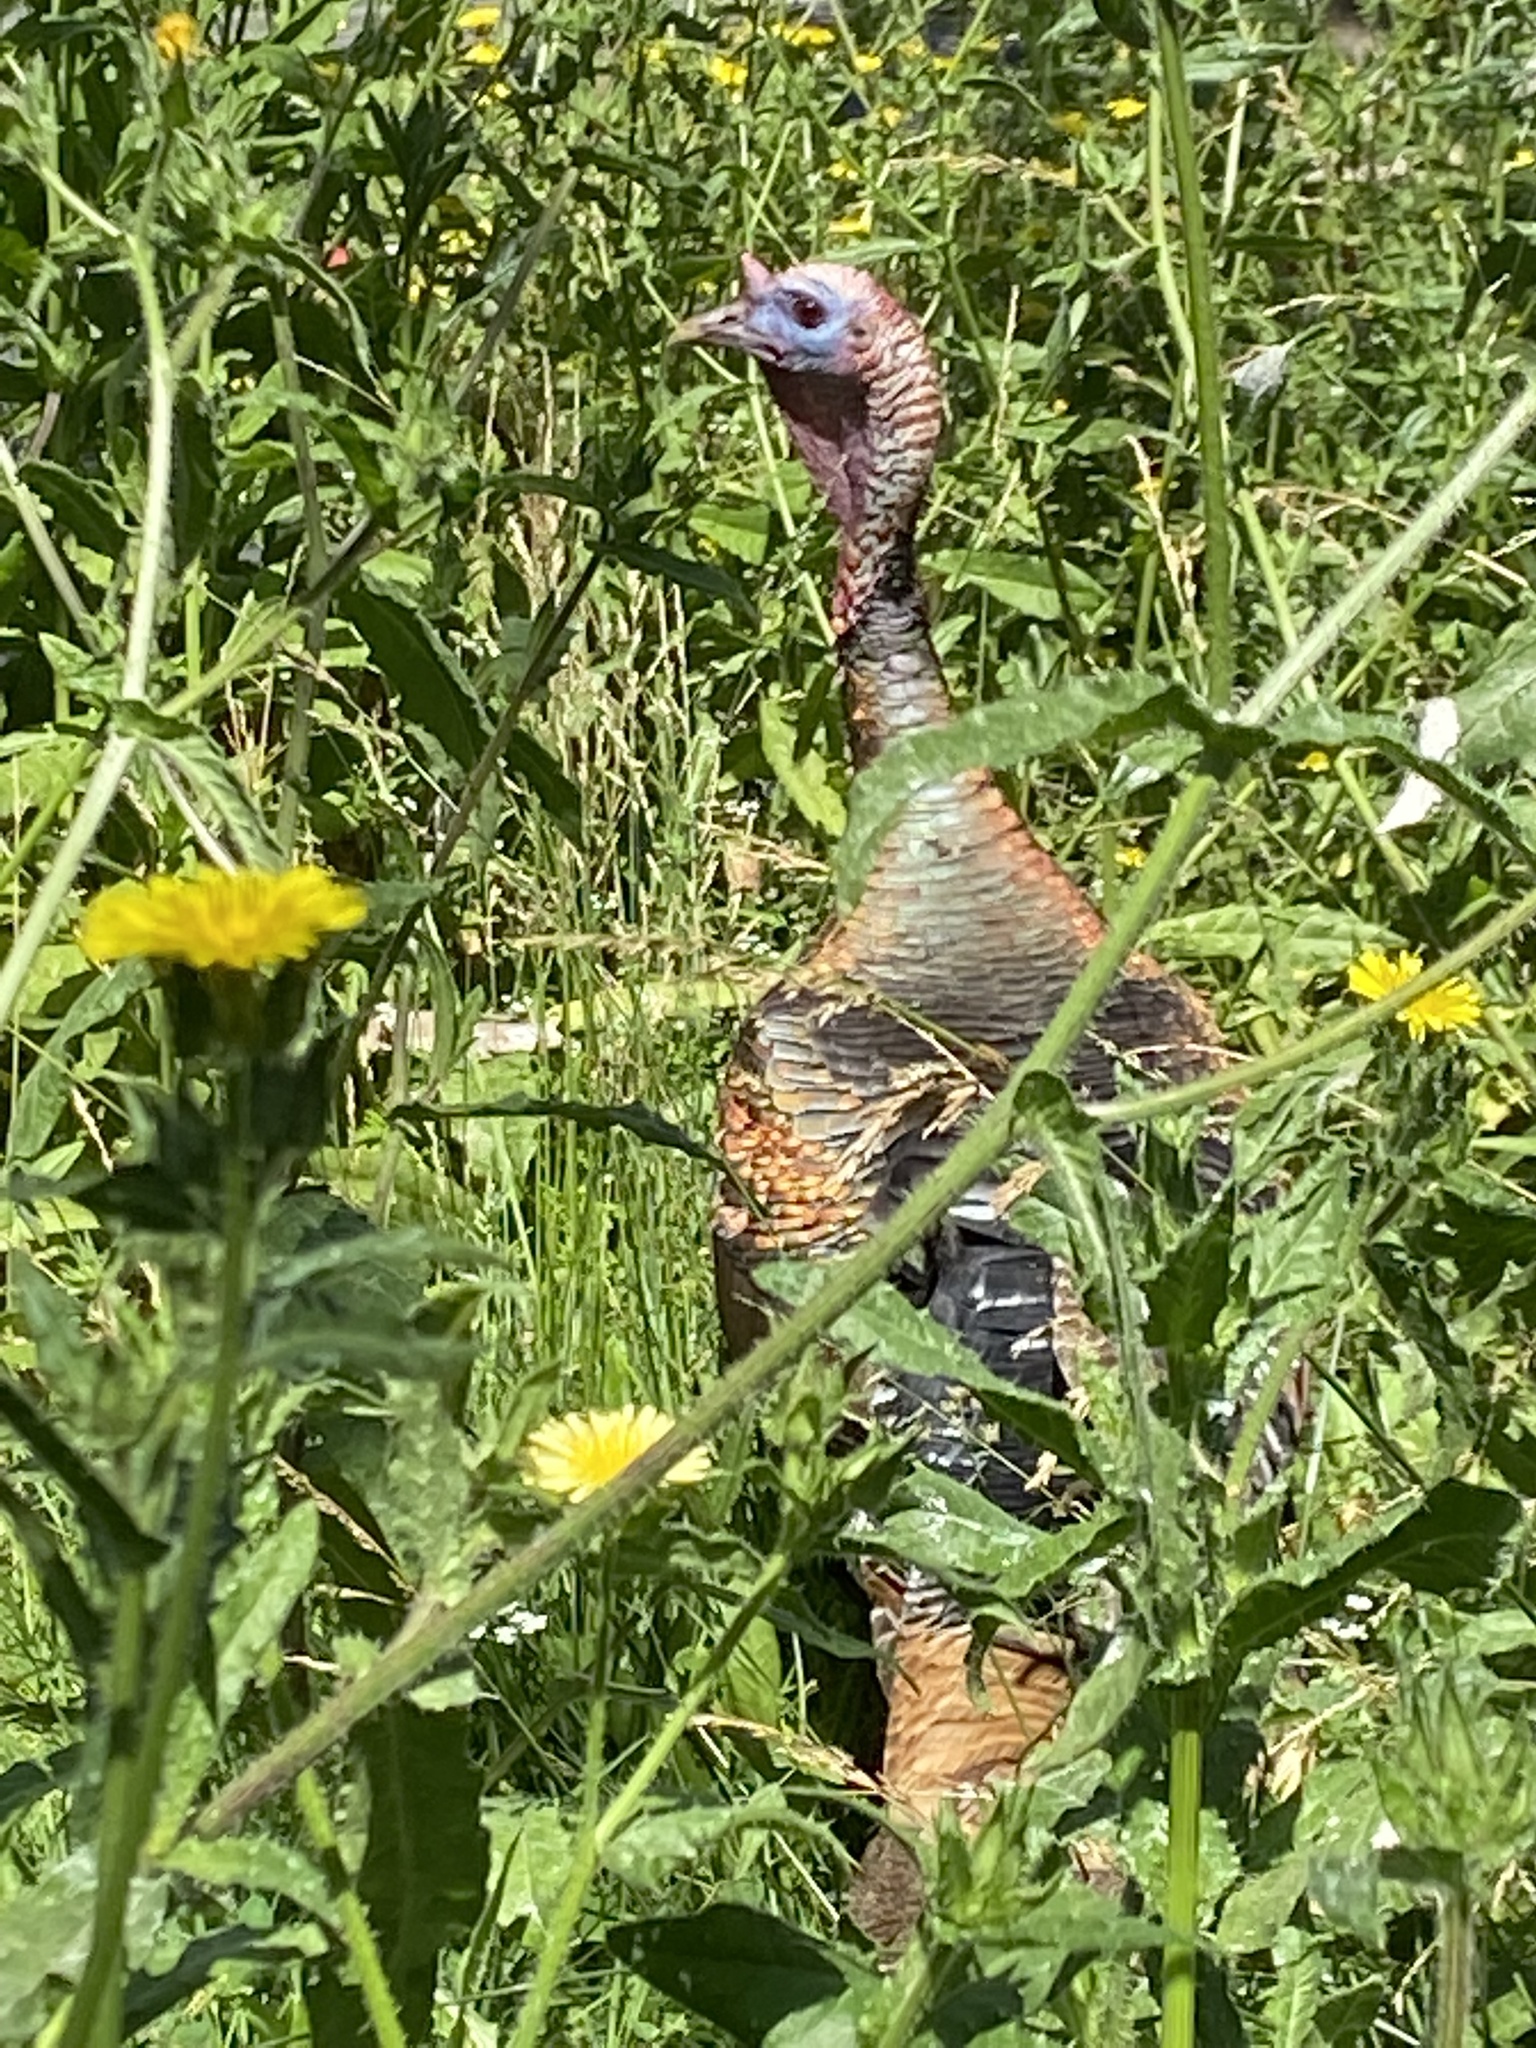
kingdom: Animalia
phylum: Chordata
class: Aves
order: Galliformes
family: Phasianidae
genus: Meleagris
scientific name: Meleagris gallopavo
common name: Wild turkey
